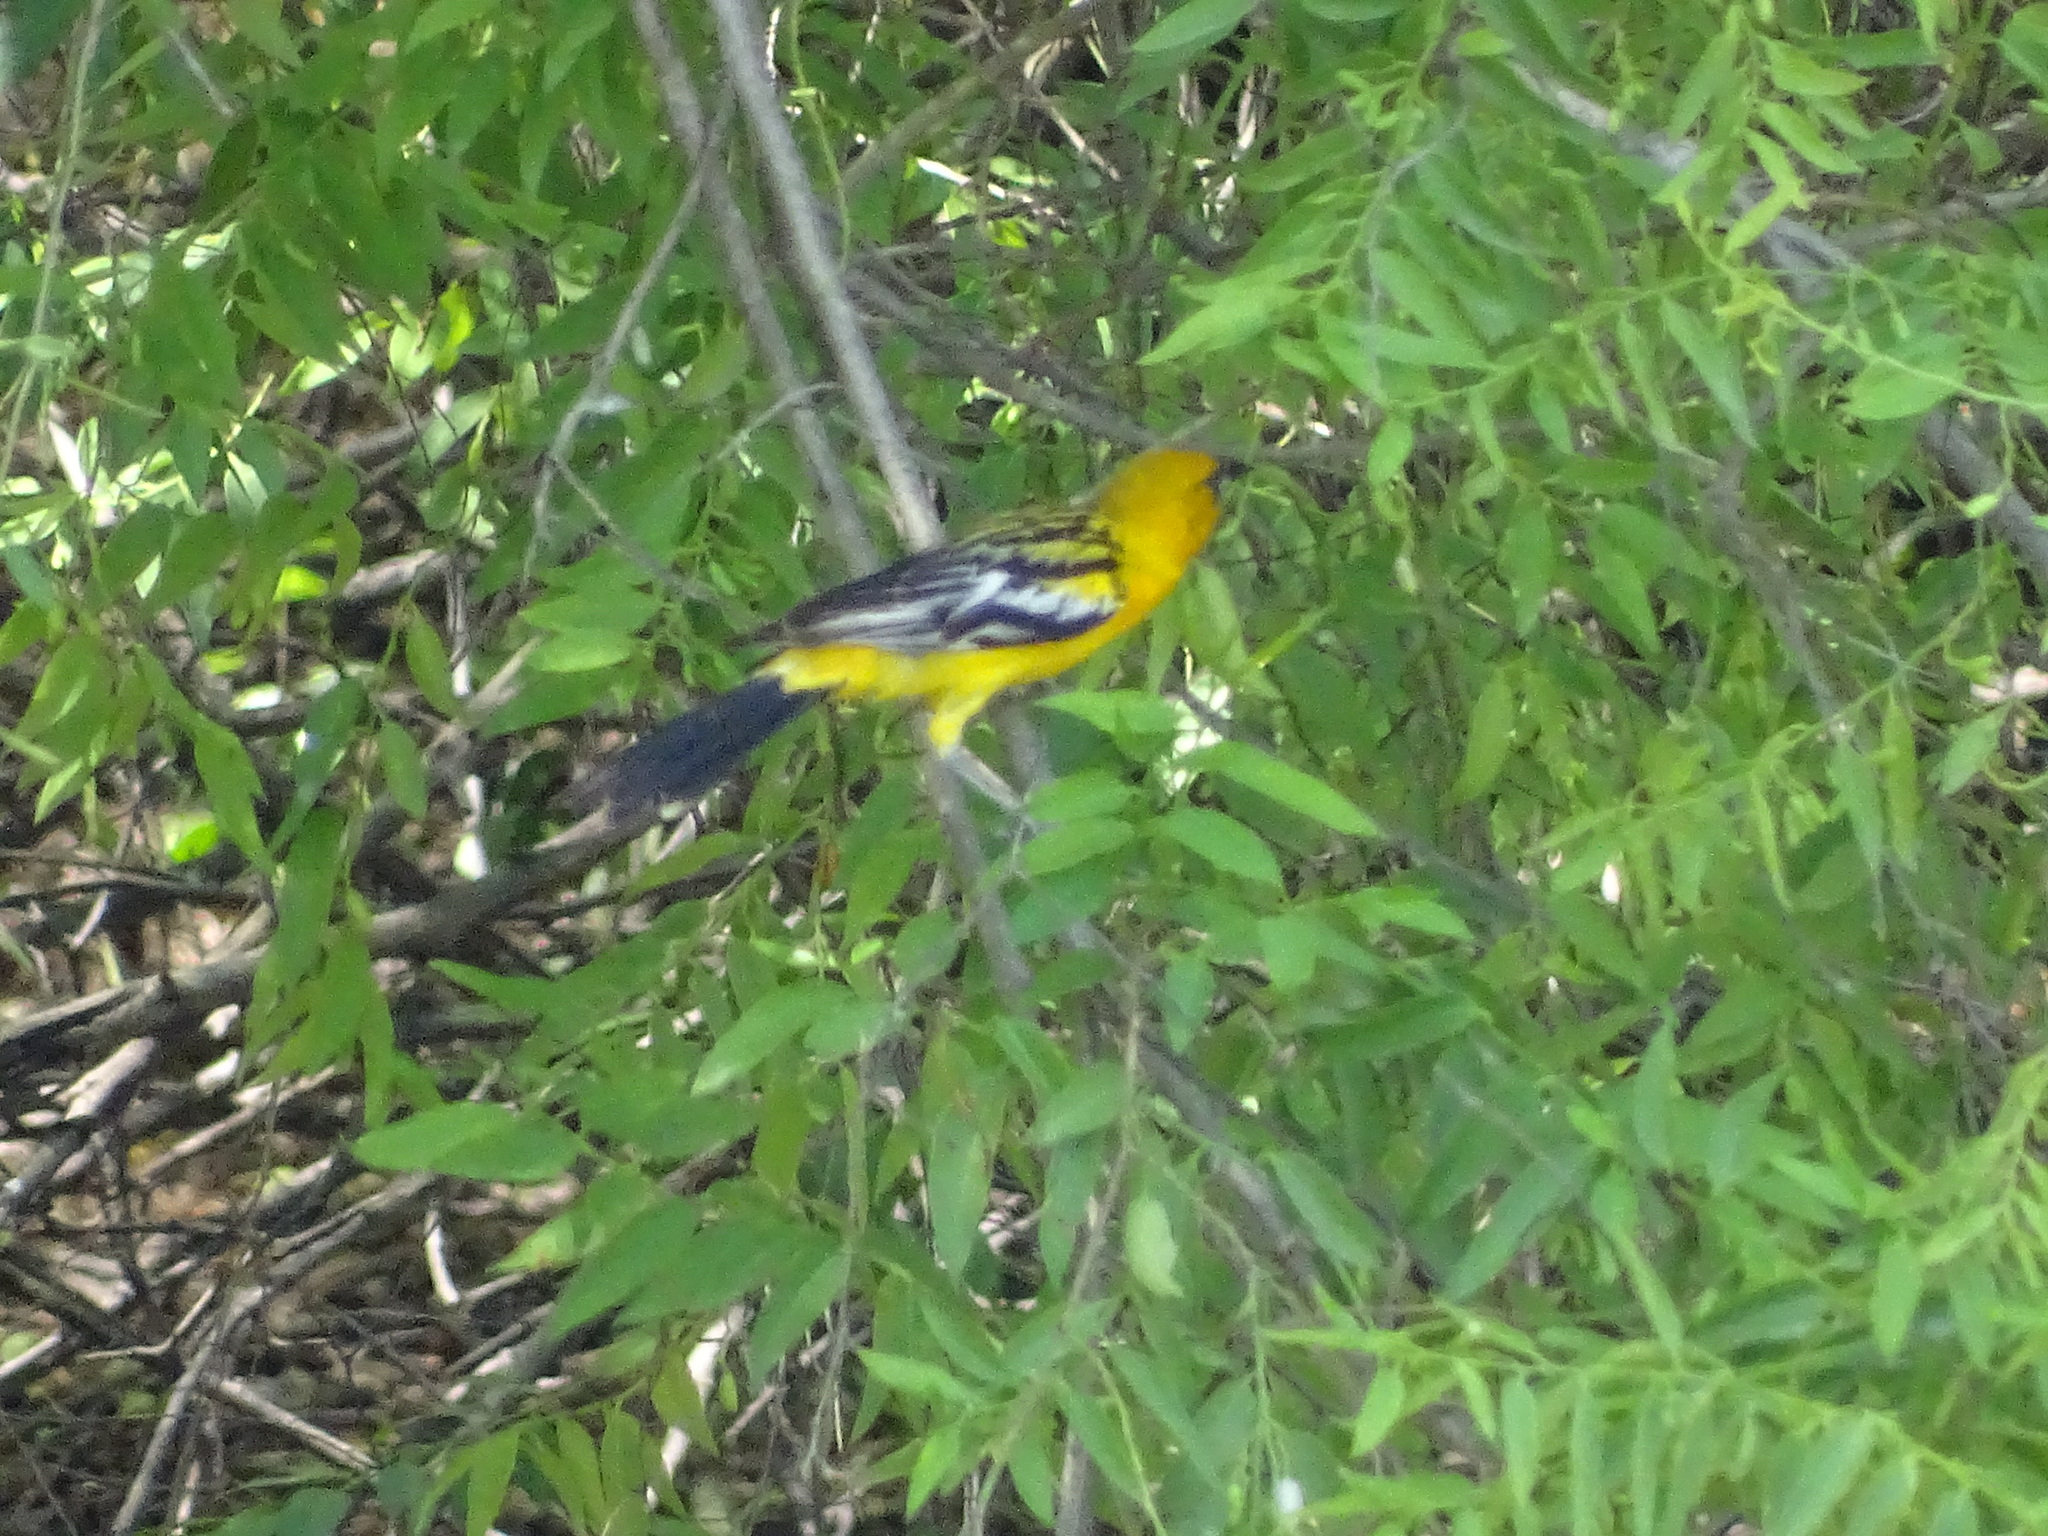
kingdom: Animalia
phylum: Chordata
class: Aves
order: Passeriformes
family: Icteridae
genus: Icterus
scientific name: Icterus pustulatus
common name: Streak-backed oriole
